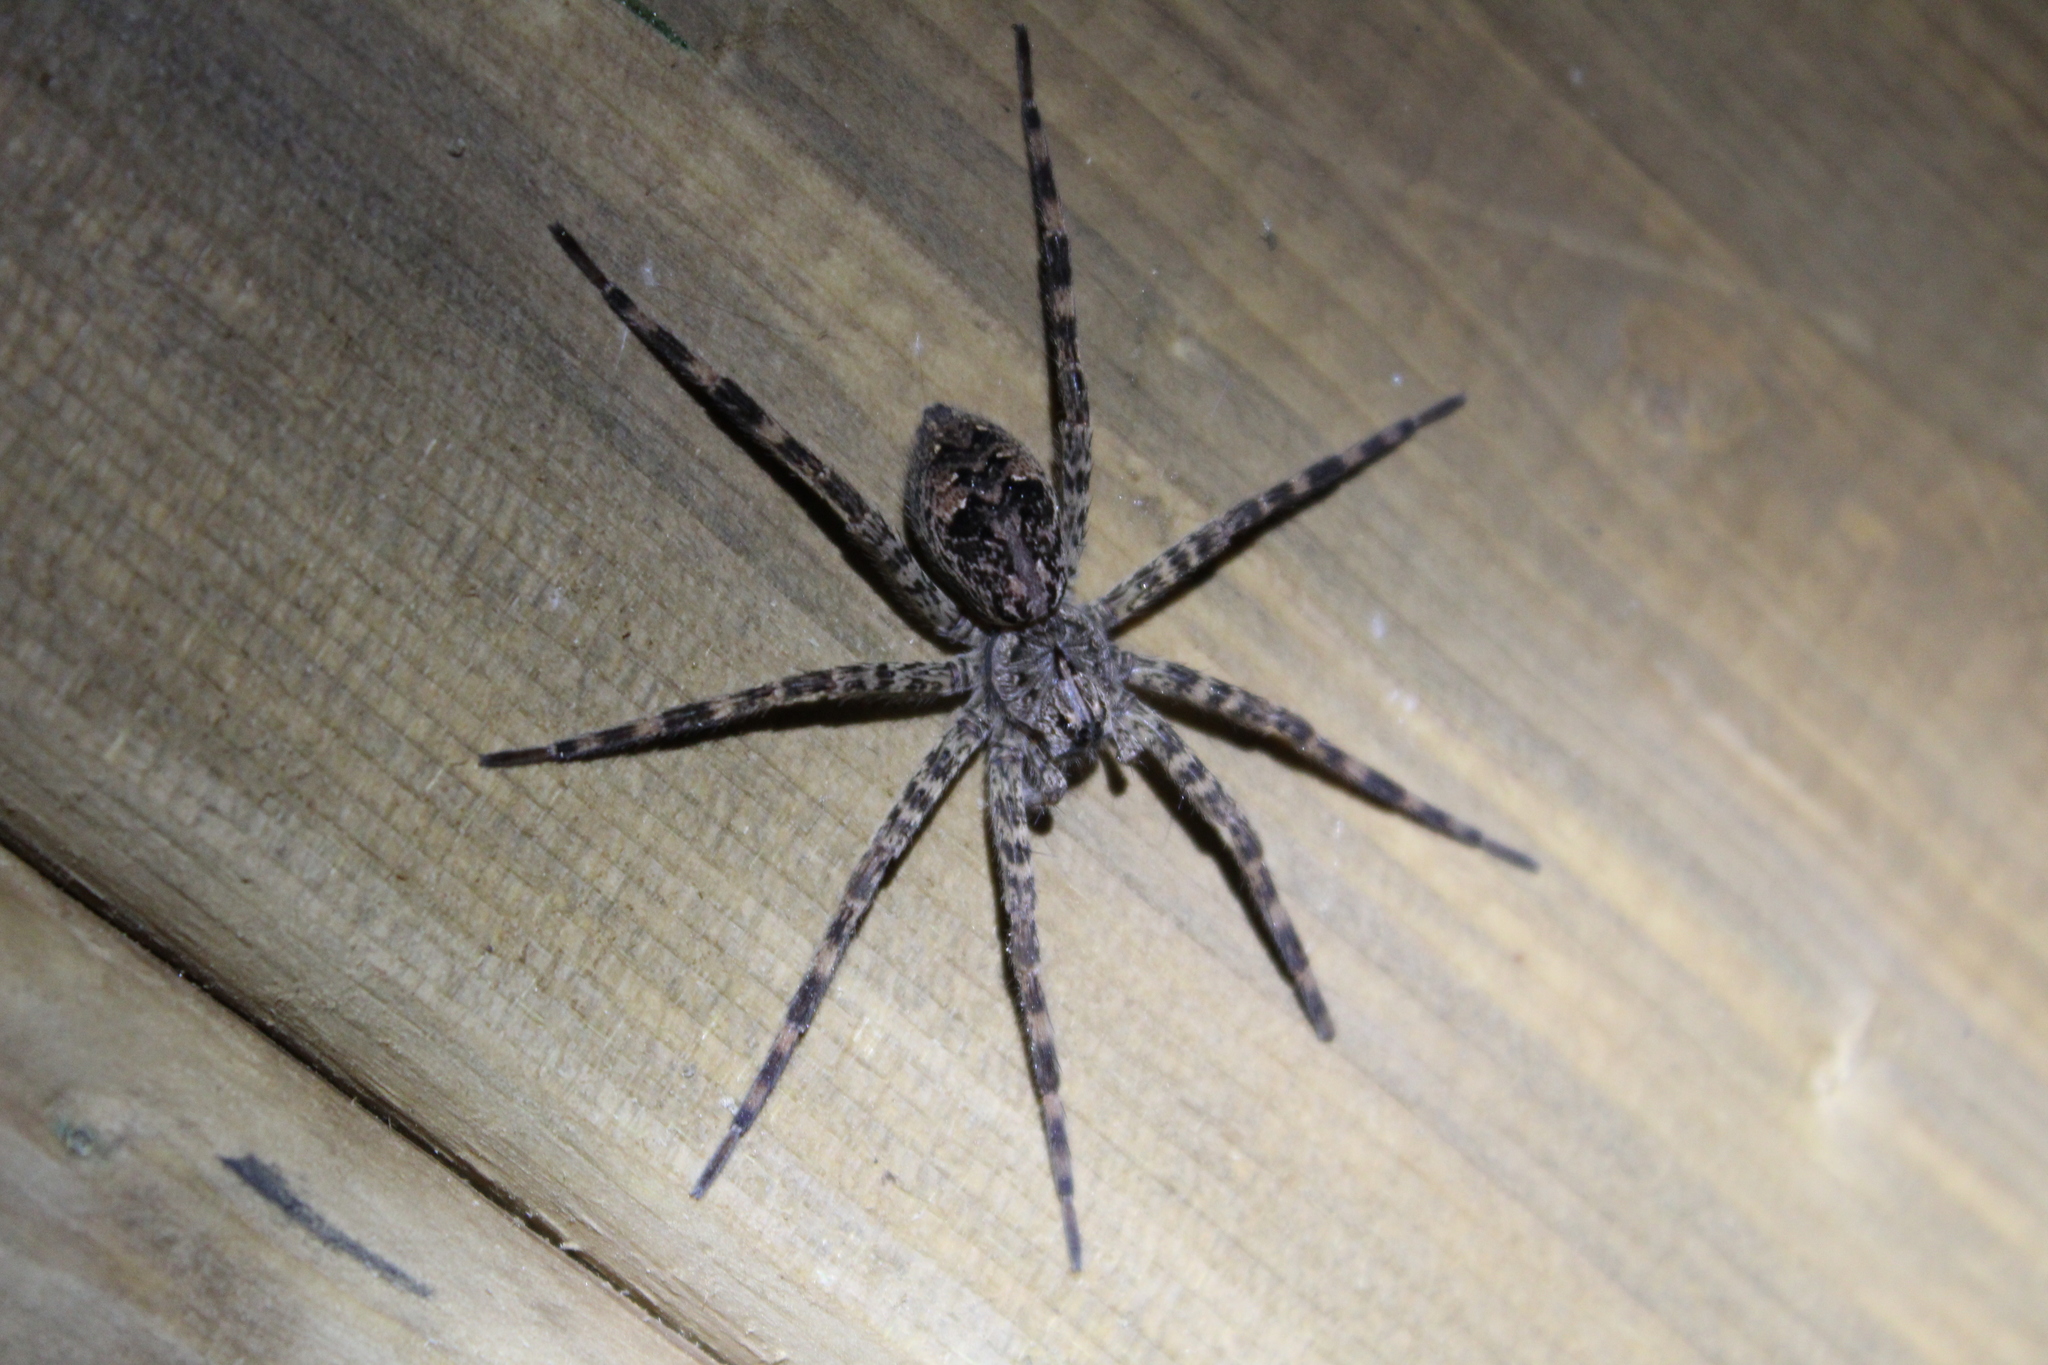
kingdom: Animalia
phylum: Arthropoda
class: Arachnida
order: Araneae
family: Pisauridae
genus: Dolomedes
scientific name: Dolomedes tenebrosus
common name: Dark fishing spider
